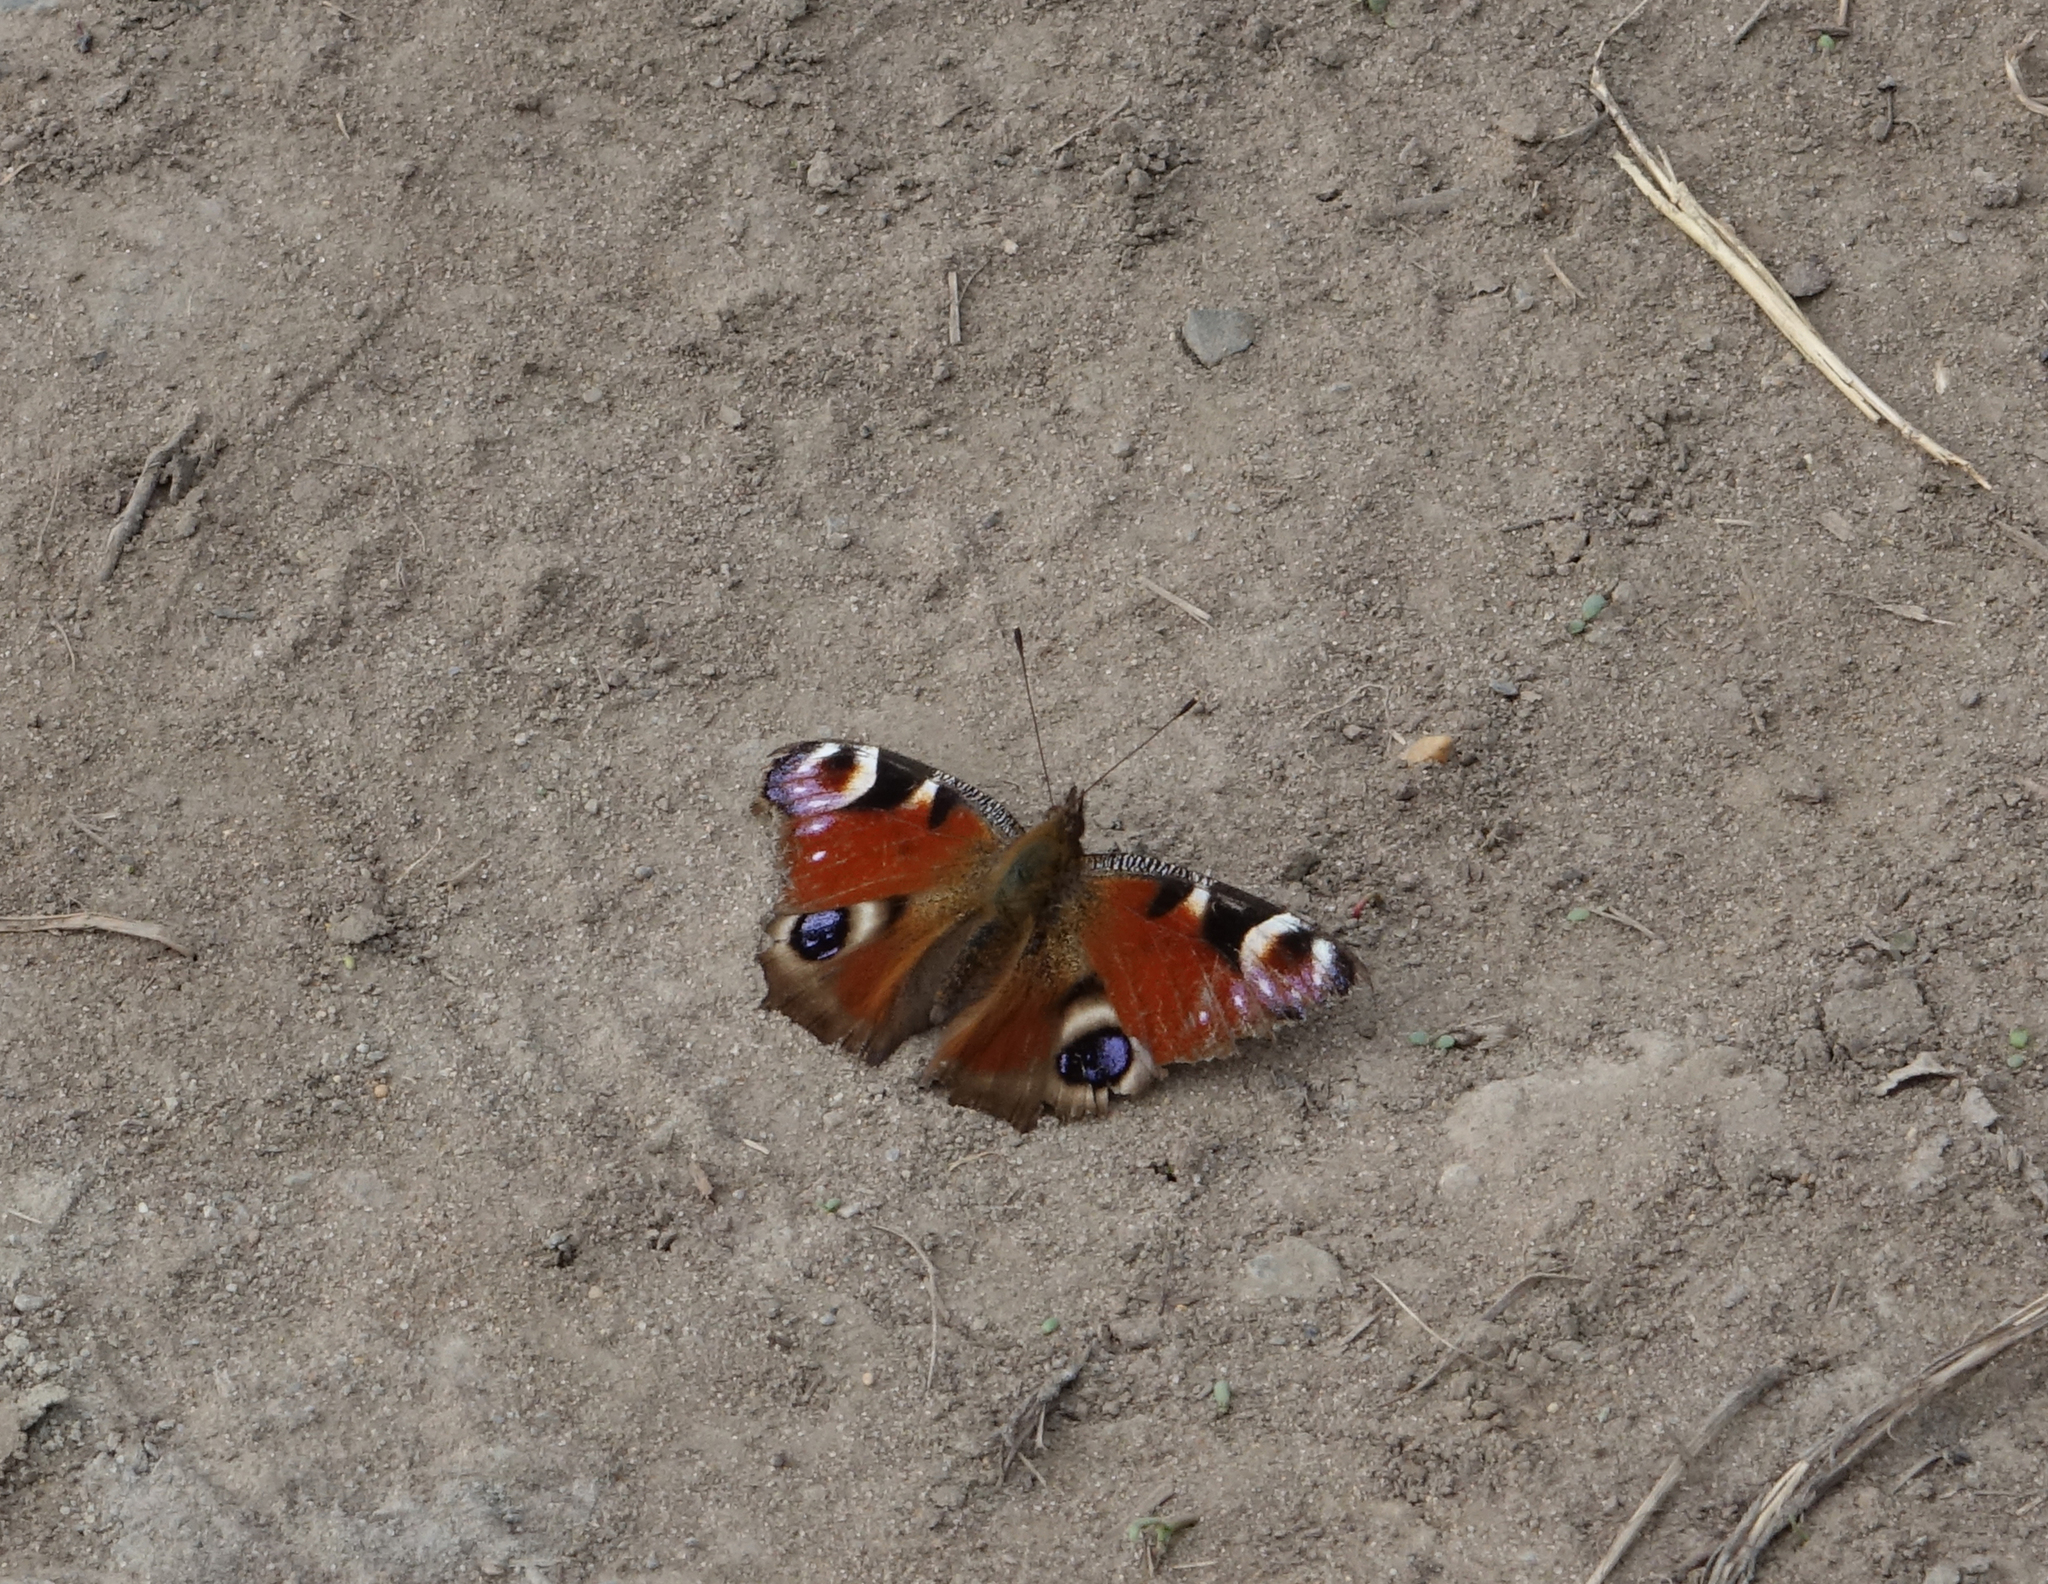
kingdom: Animalia
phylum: Arthropoda
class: Insecta
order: Lepidoptera
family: Nymphalidae
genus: Aglais
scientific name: Aglais io
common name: Peacock
